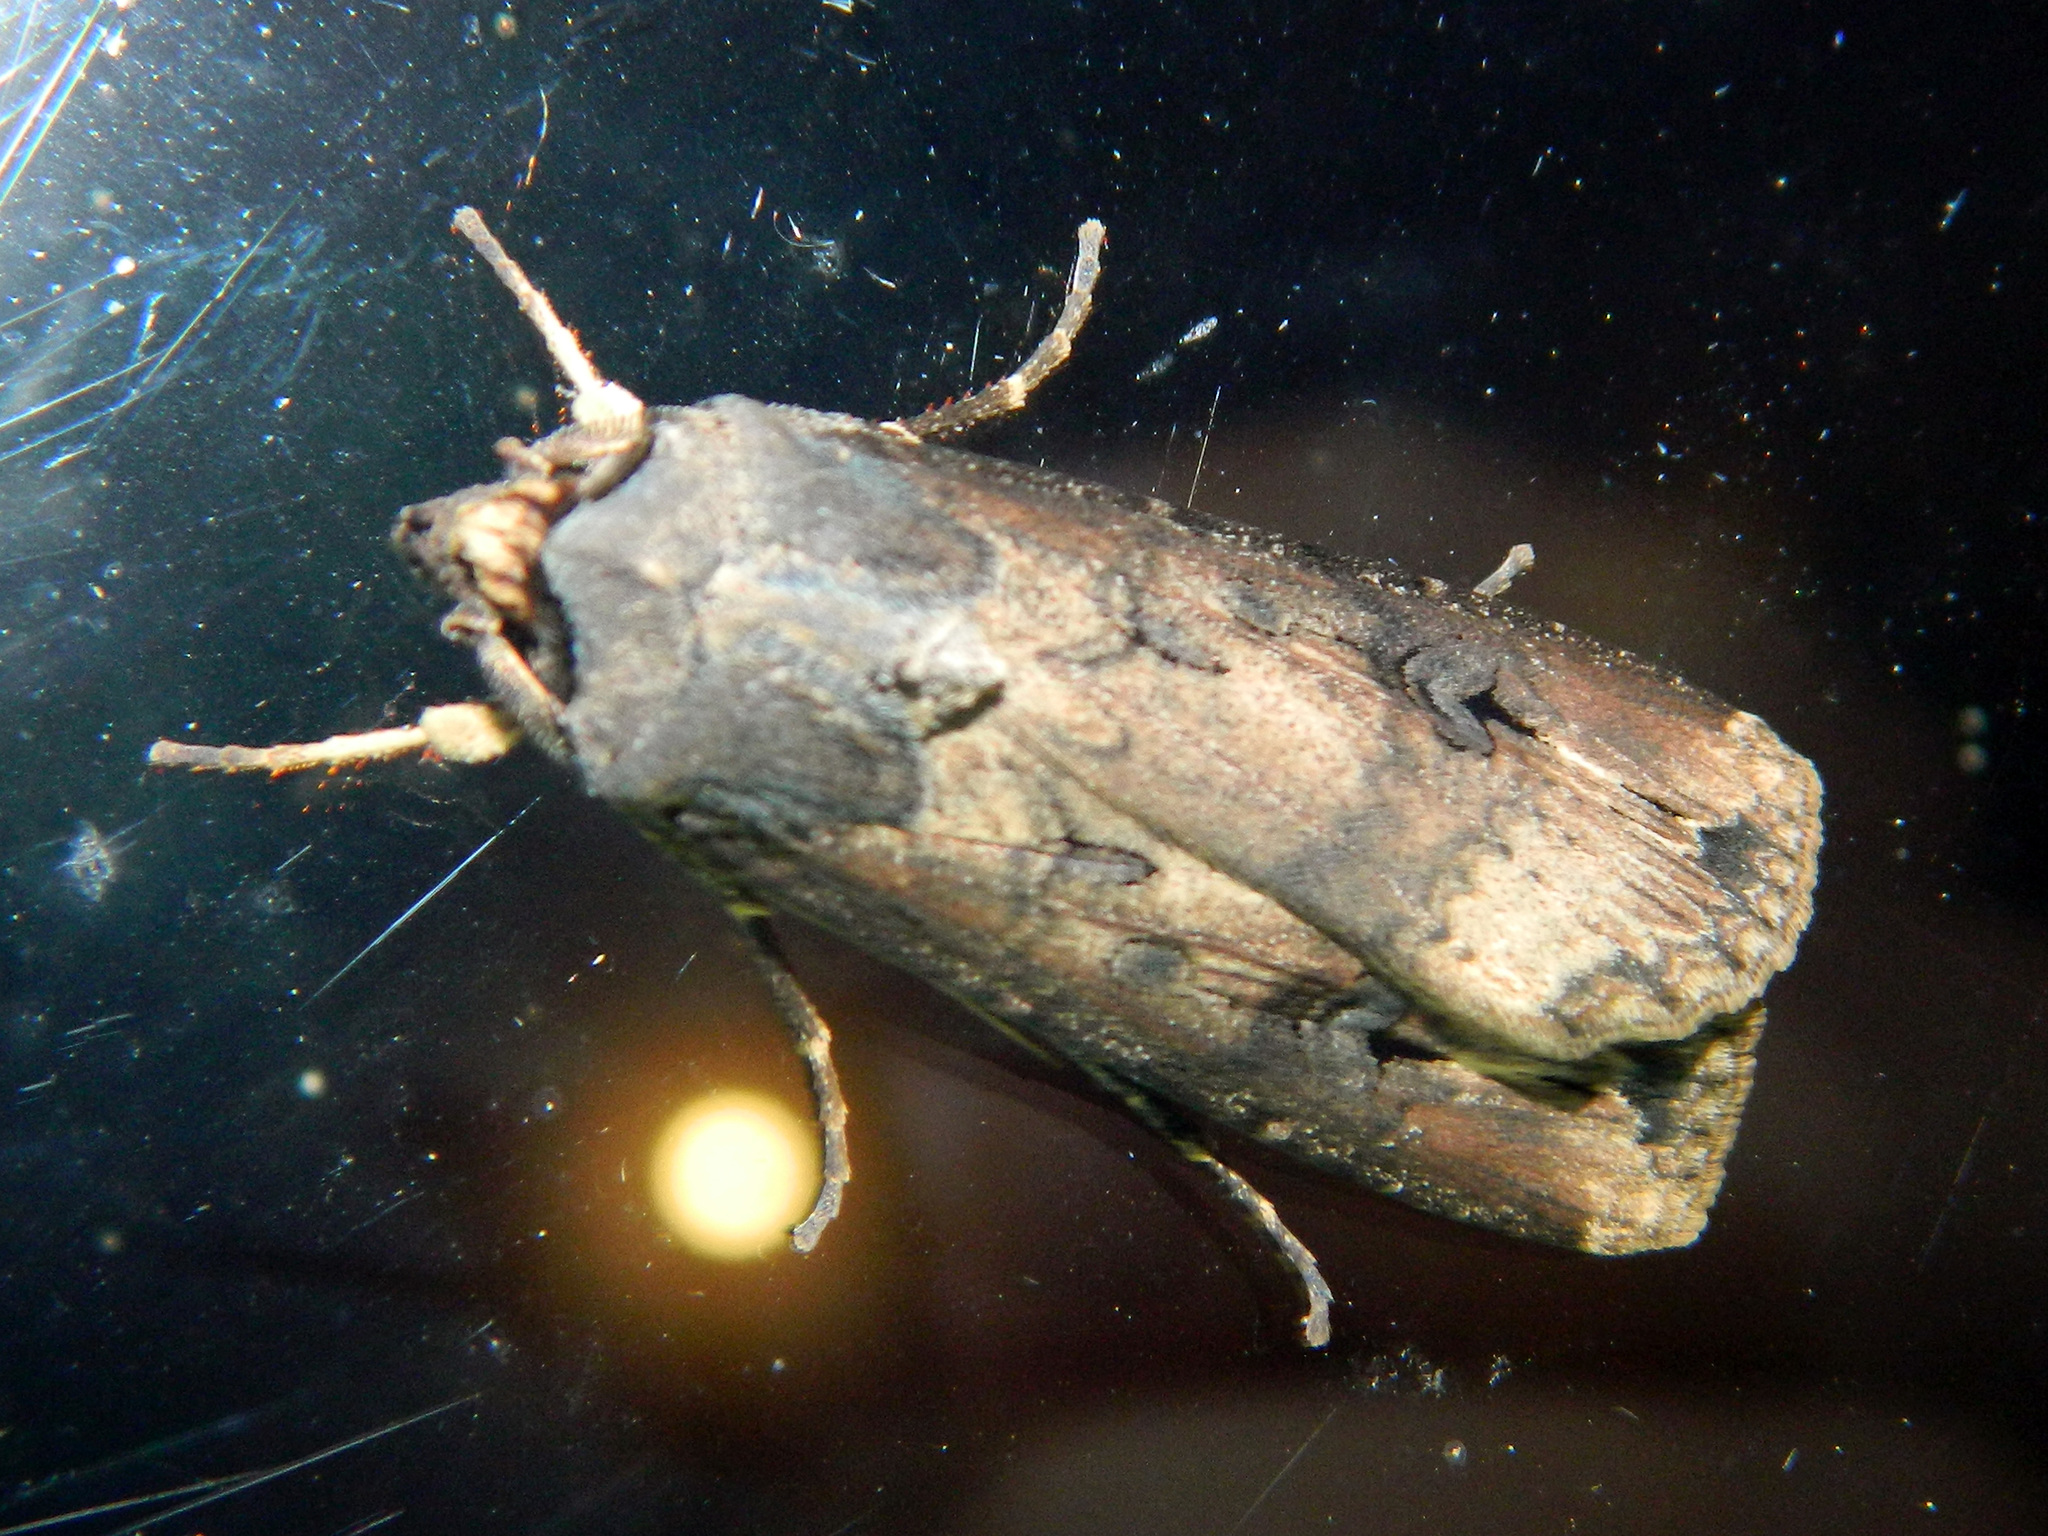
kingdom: Animalia
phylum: Arthropoda
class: Insecta
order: Lepidoptera
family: Noctuidae
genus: Agrotis
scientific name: Agrotis ipsilon
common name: Dark sword-grass
